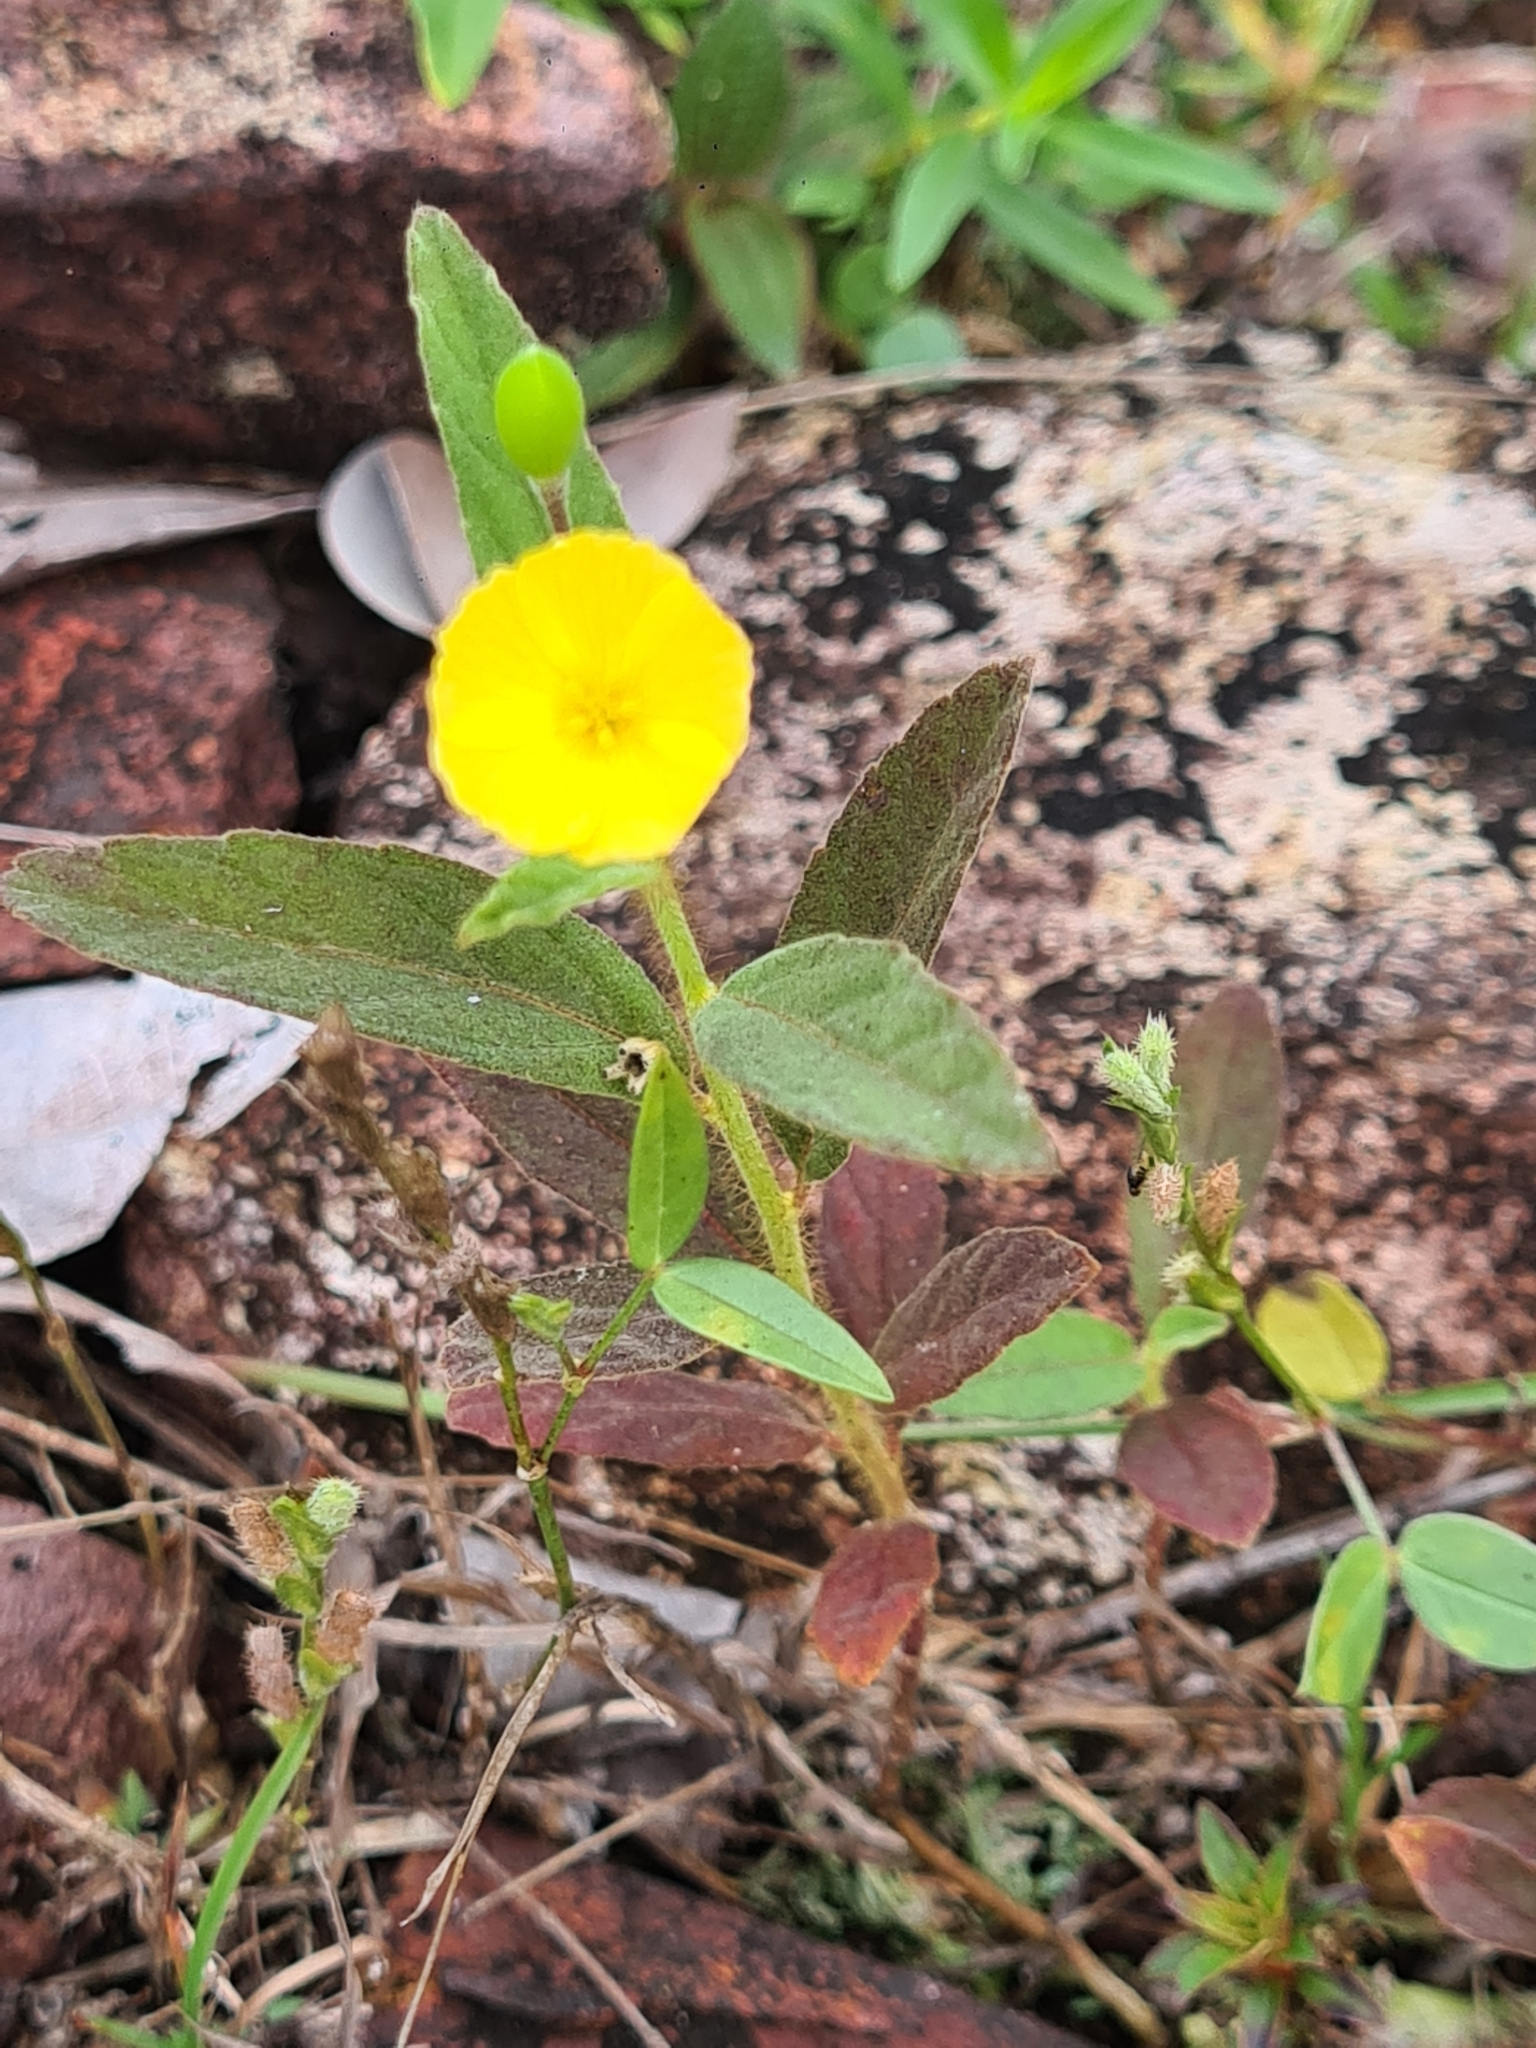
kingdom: Plantae
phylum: Tracheophyta
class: Magnoliopsida
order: Malpighiales
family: Turneraceae
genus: Piriqueta
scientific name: Piriqueta cistoides
